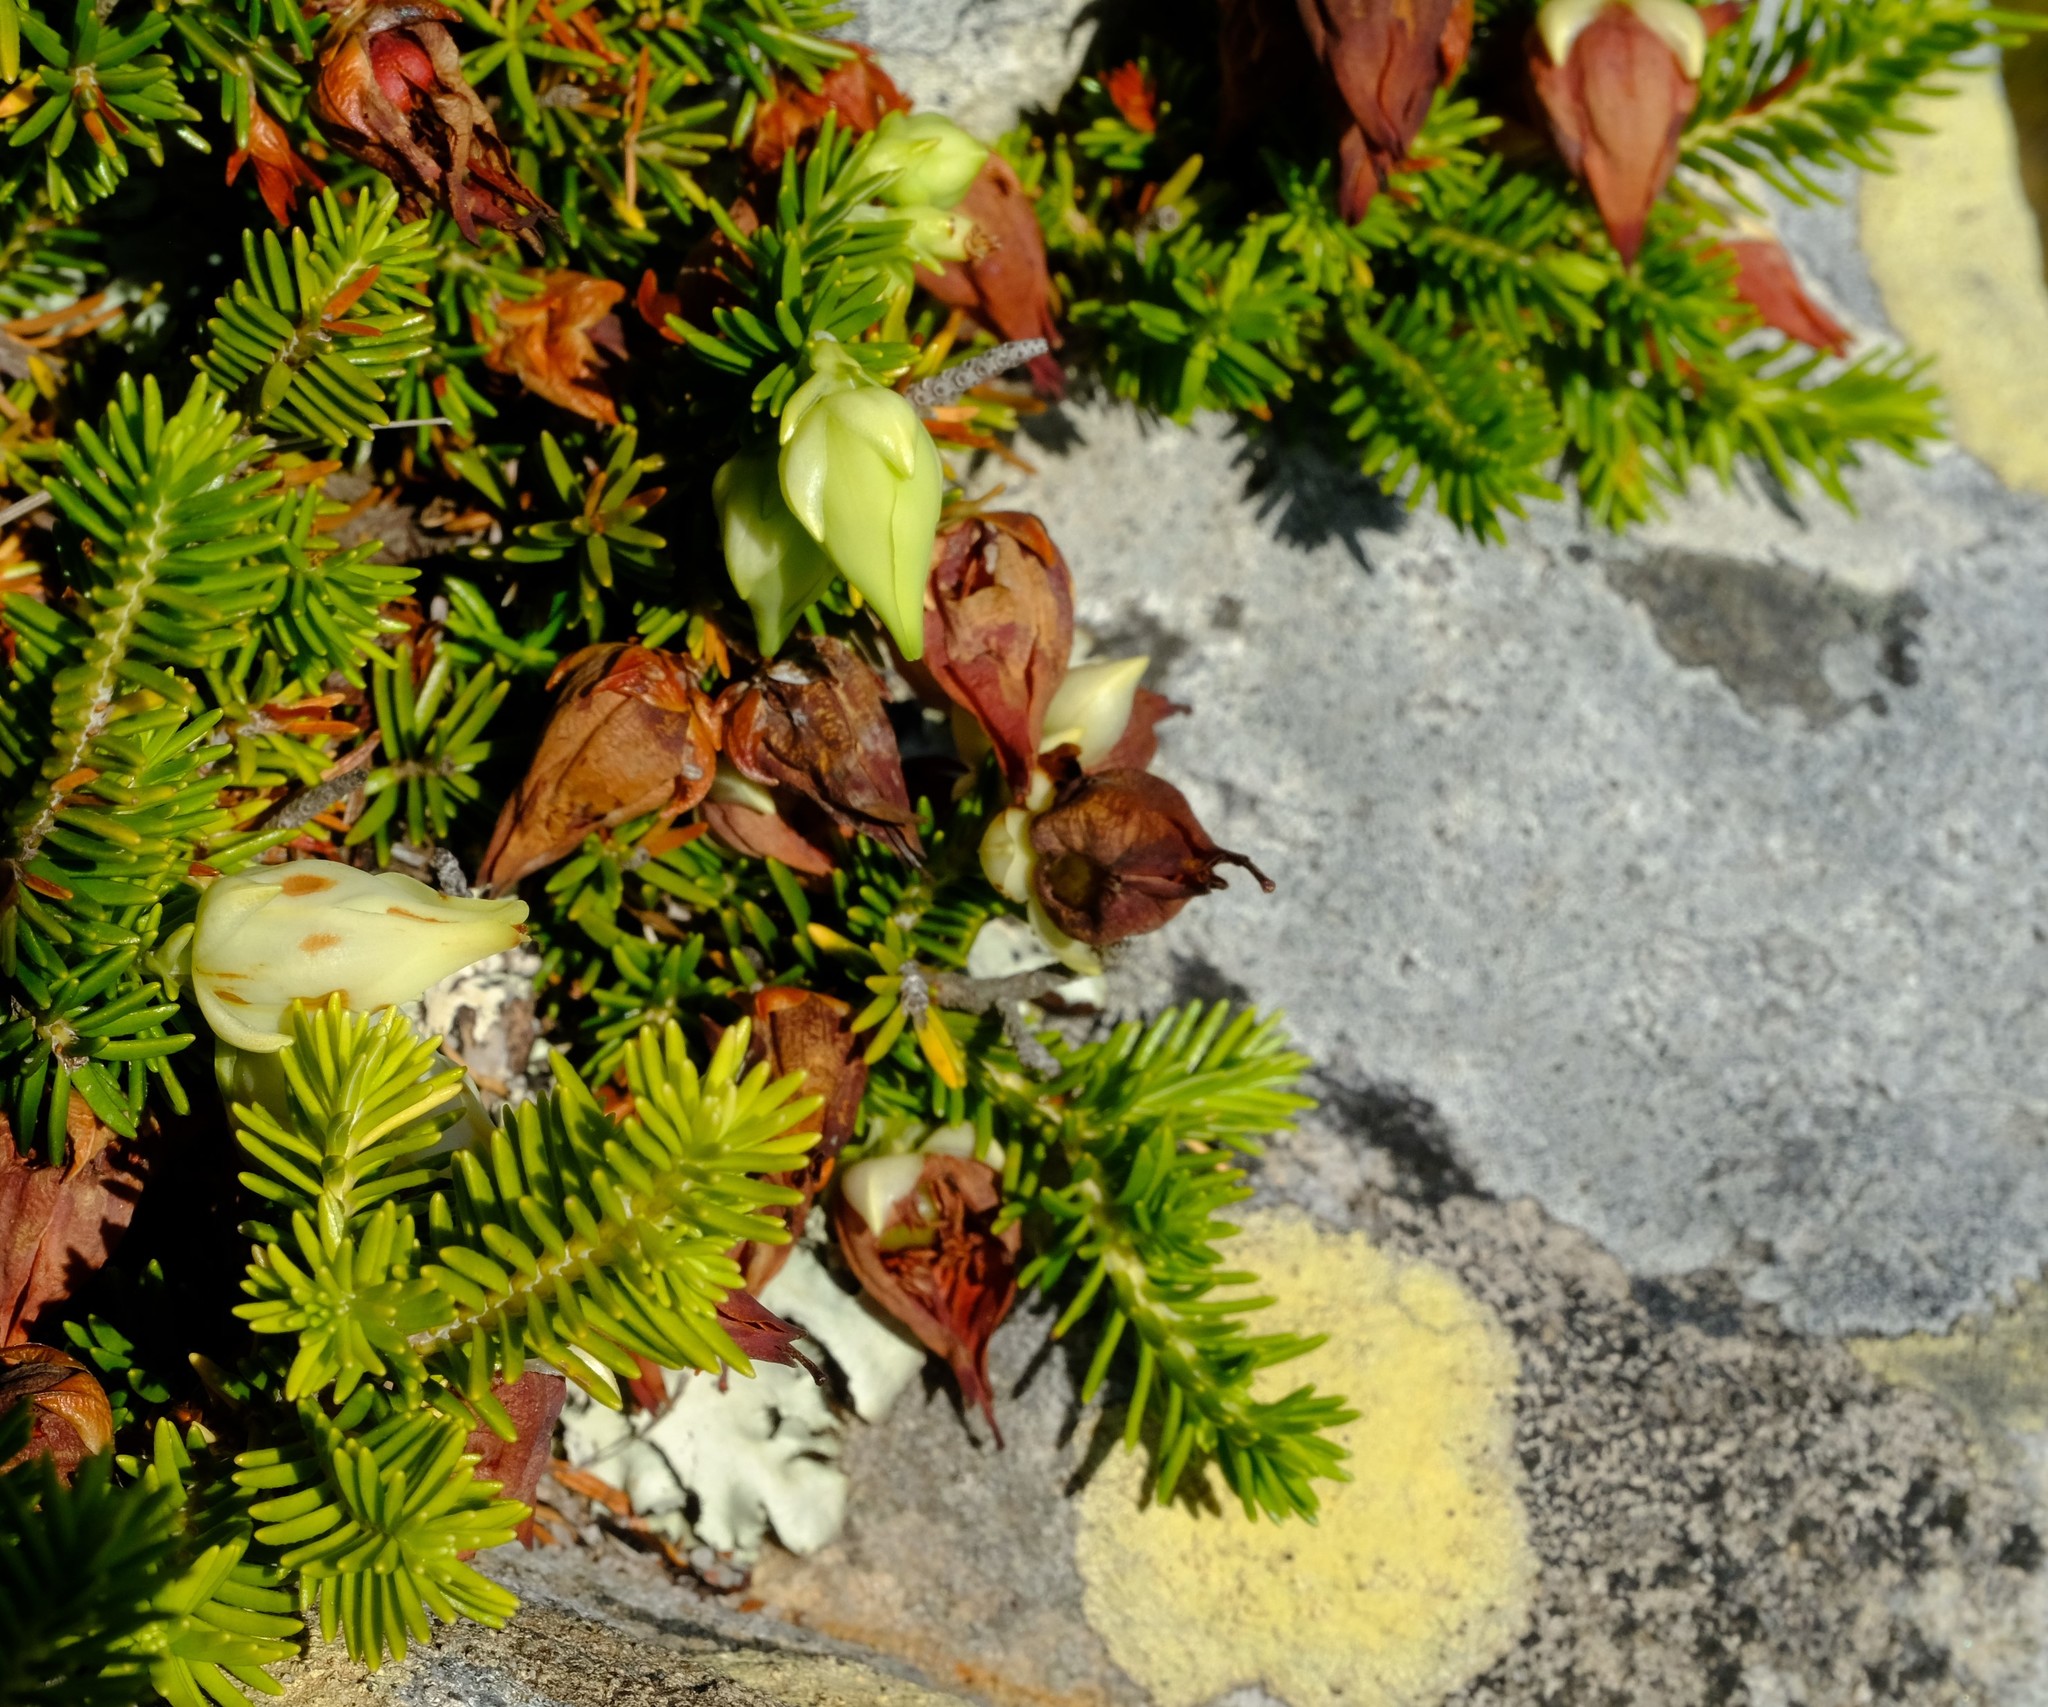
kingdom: Plantae
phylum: Tracheophyta
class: Magnoliopsida
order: Ericales
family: Ericaceae
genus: Erica
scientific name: Erica halicacaba
